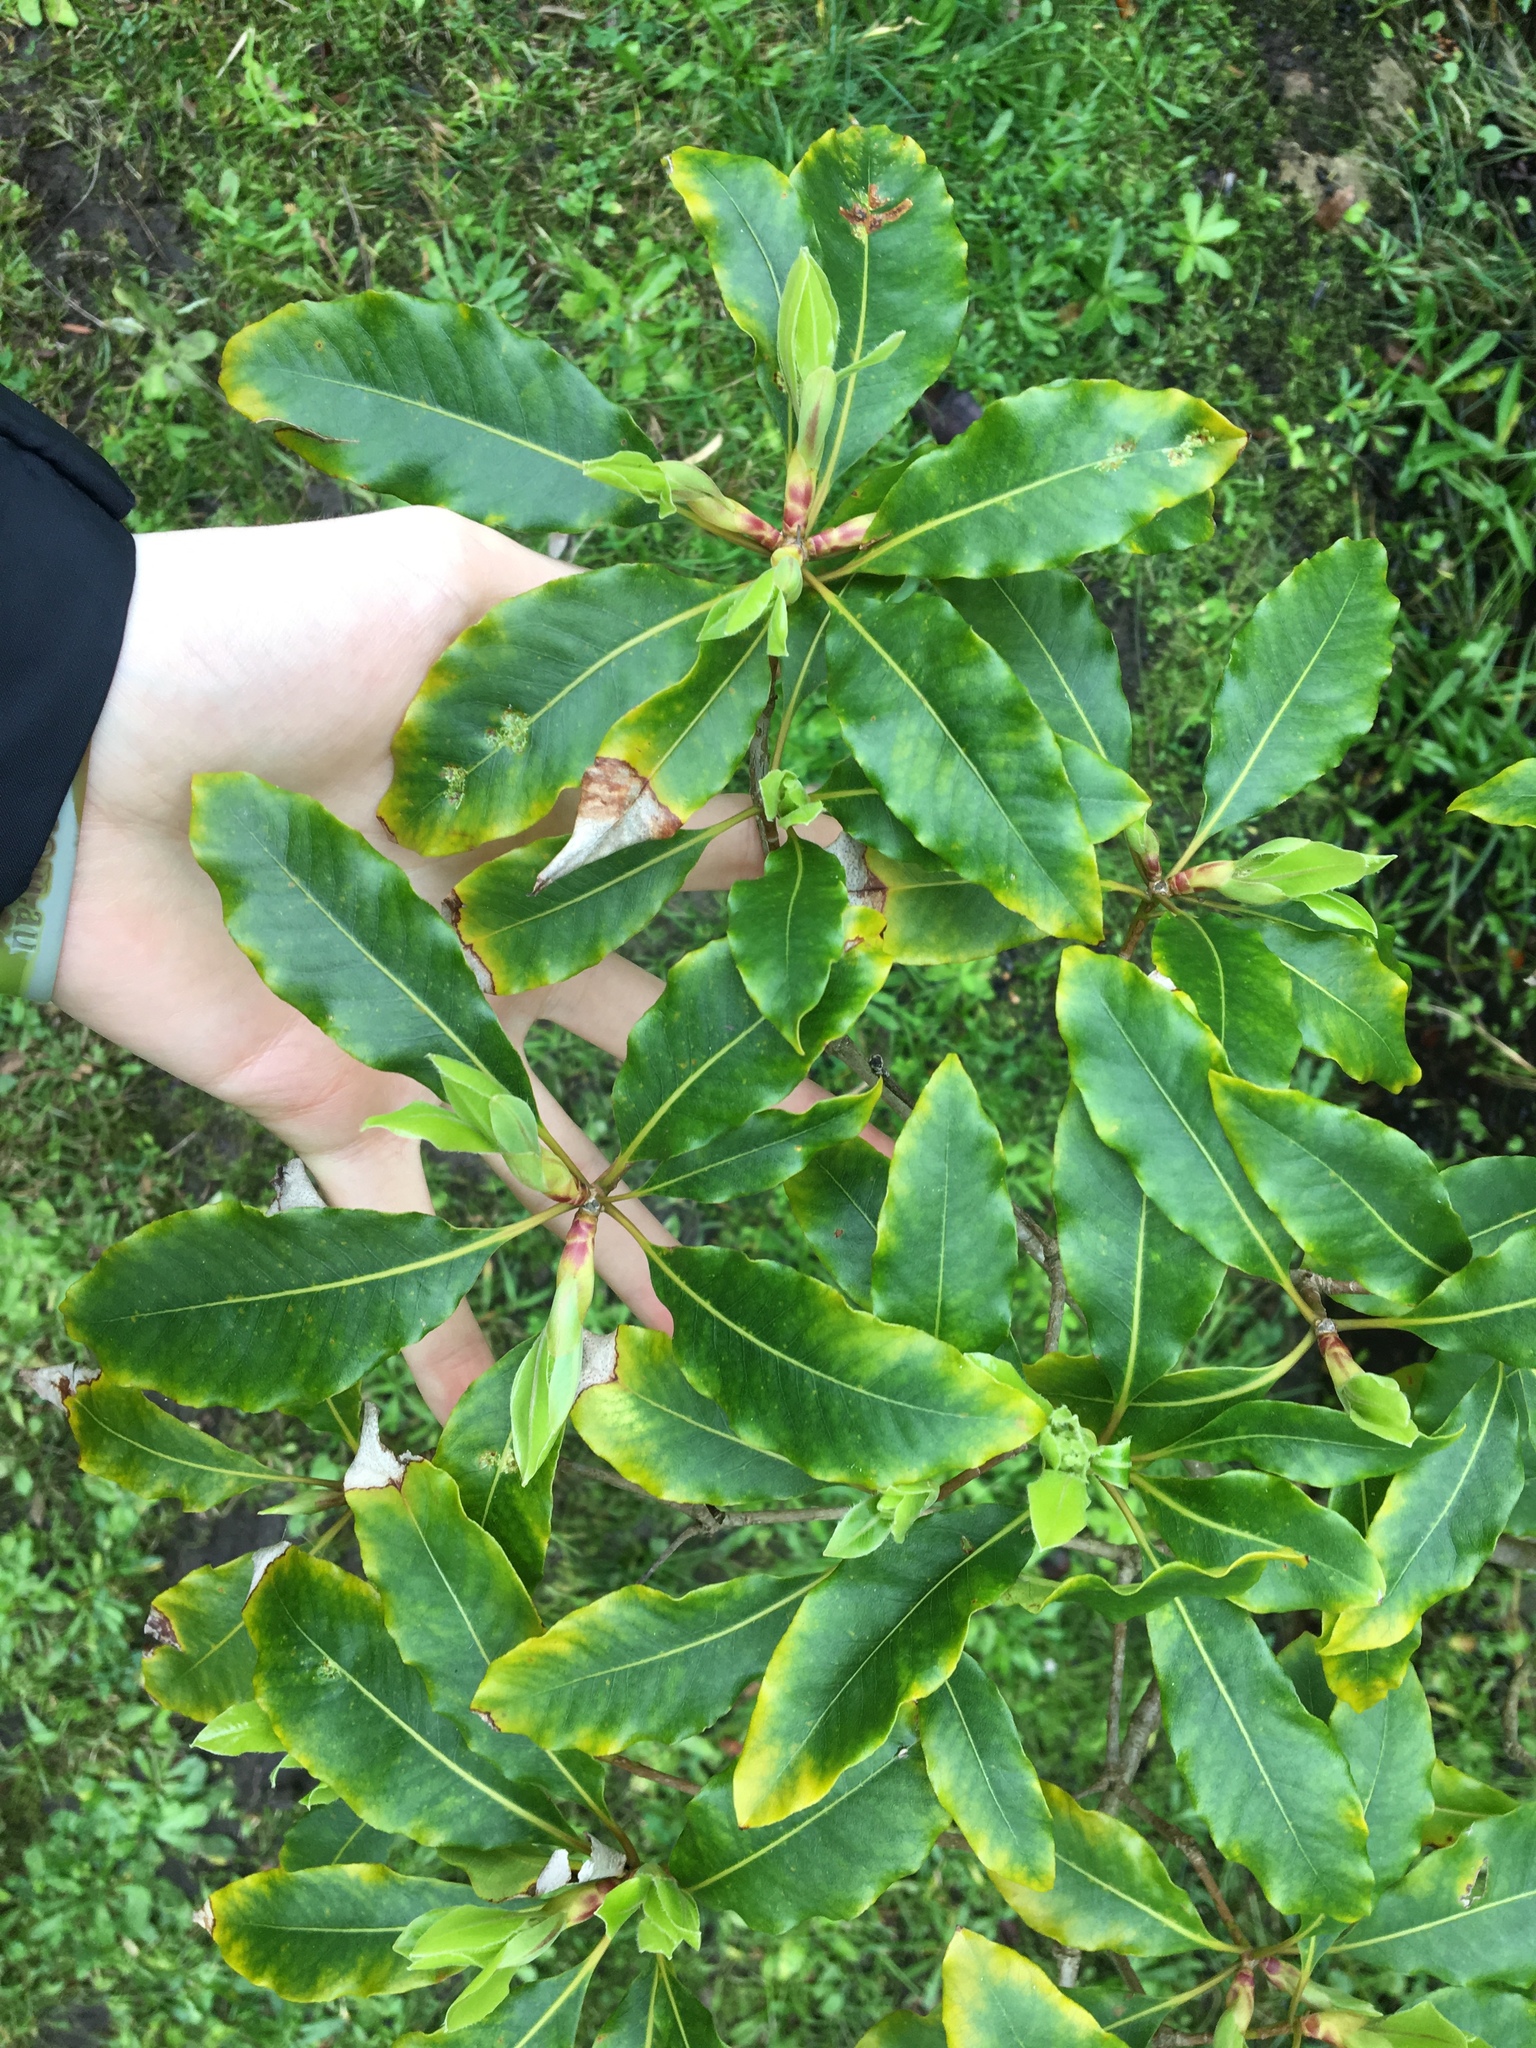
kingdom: Plantae
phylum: Tracheophyta
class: Magnoliopsida
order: Apiales
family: Pittosporaceae
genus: Pittosporum
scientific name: Pittosporum undulatum
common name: Australian cheesewood
